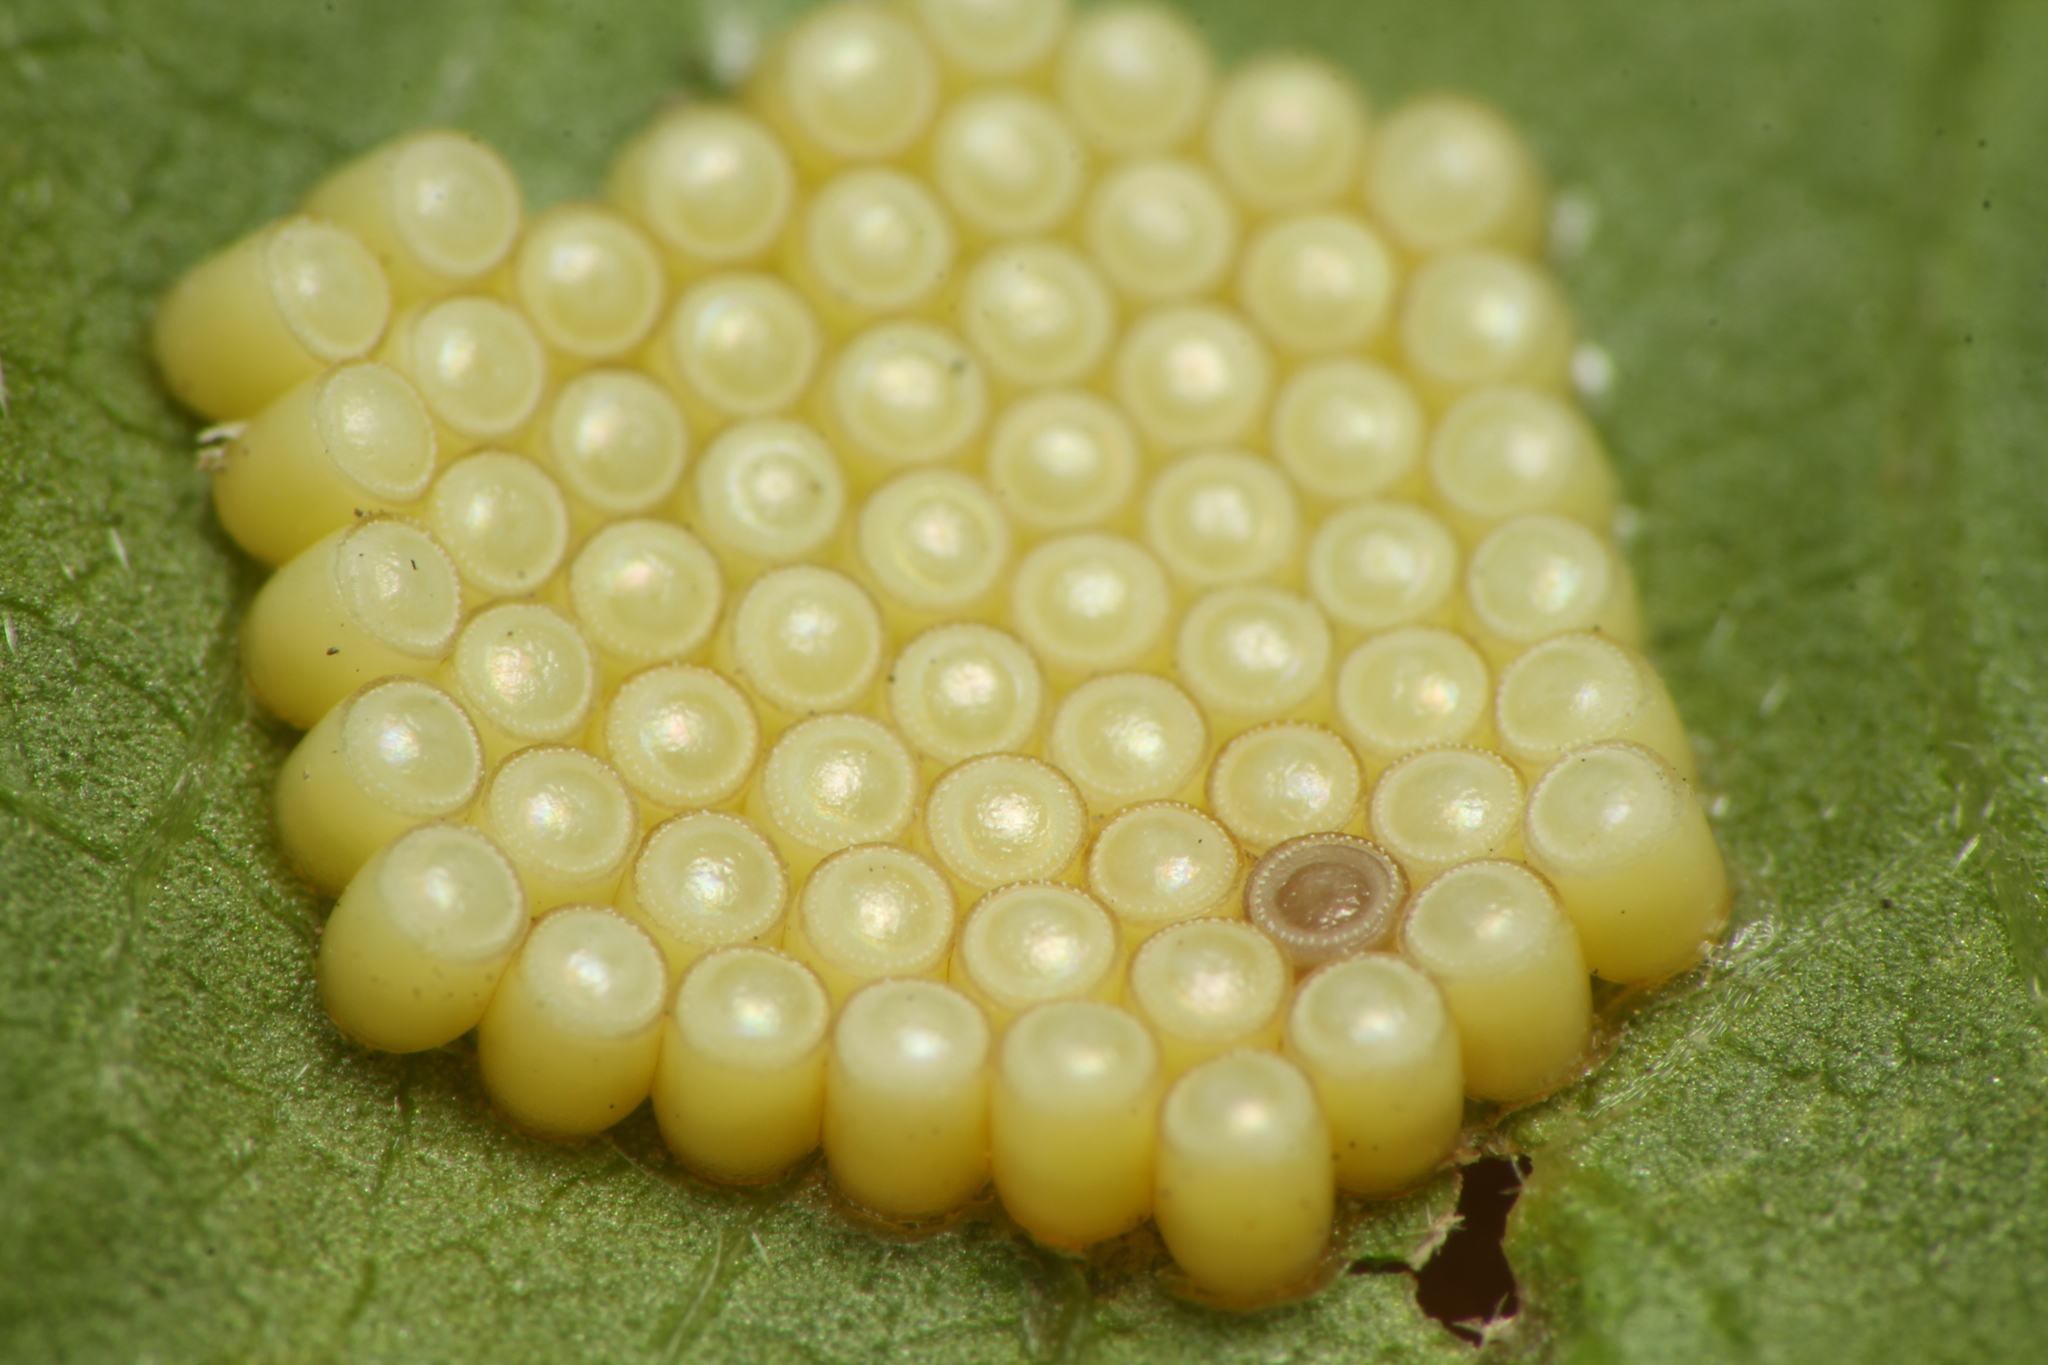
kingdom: Animalia
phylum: Arthropoda
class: Insecta
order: Hemiptera
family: Pentatomidae
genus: Nezara
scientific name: Nezara viridula
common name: Southern green stink bug
